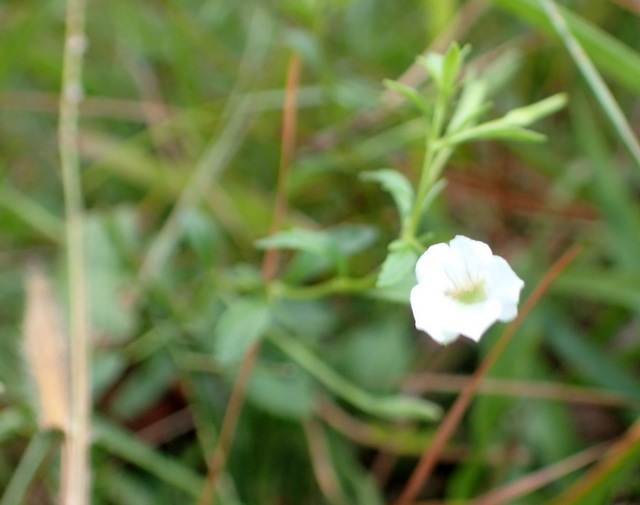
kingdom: Plantae
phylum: Tracheophyta
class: Magnoliopsida
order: Lamiales
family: Plantaginaceae
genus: Mecardonia
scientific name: Mecardonia acuminata
